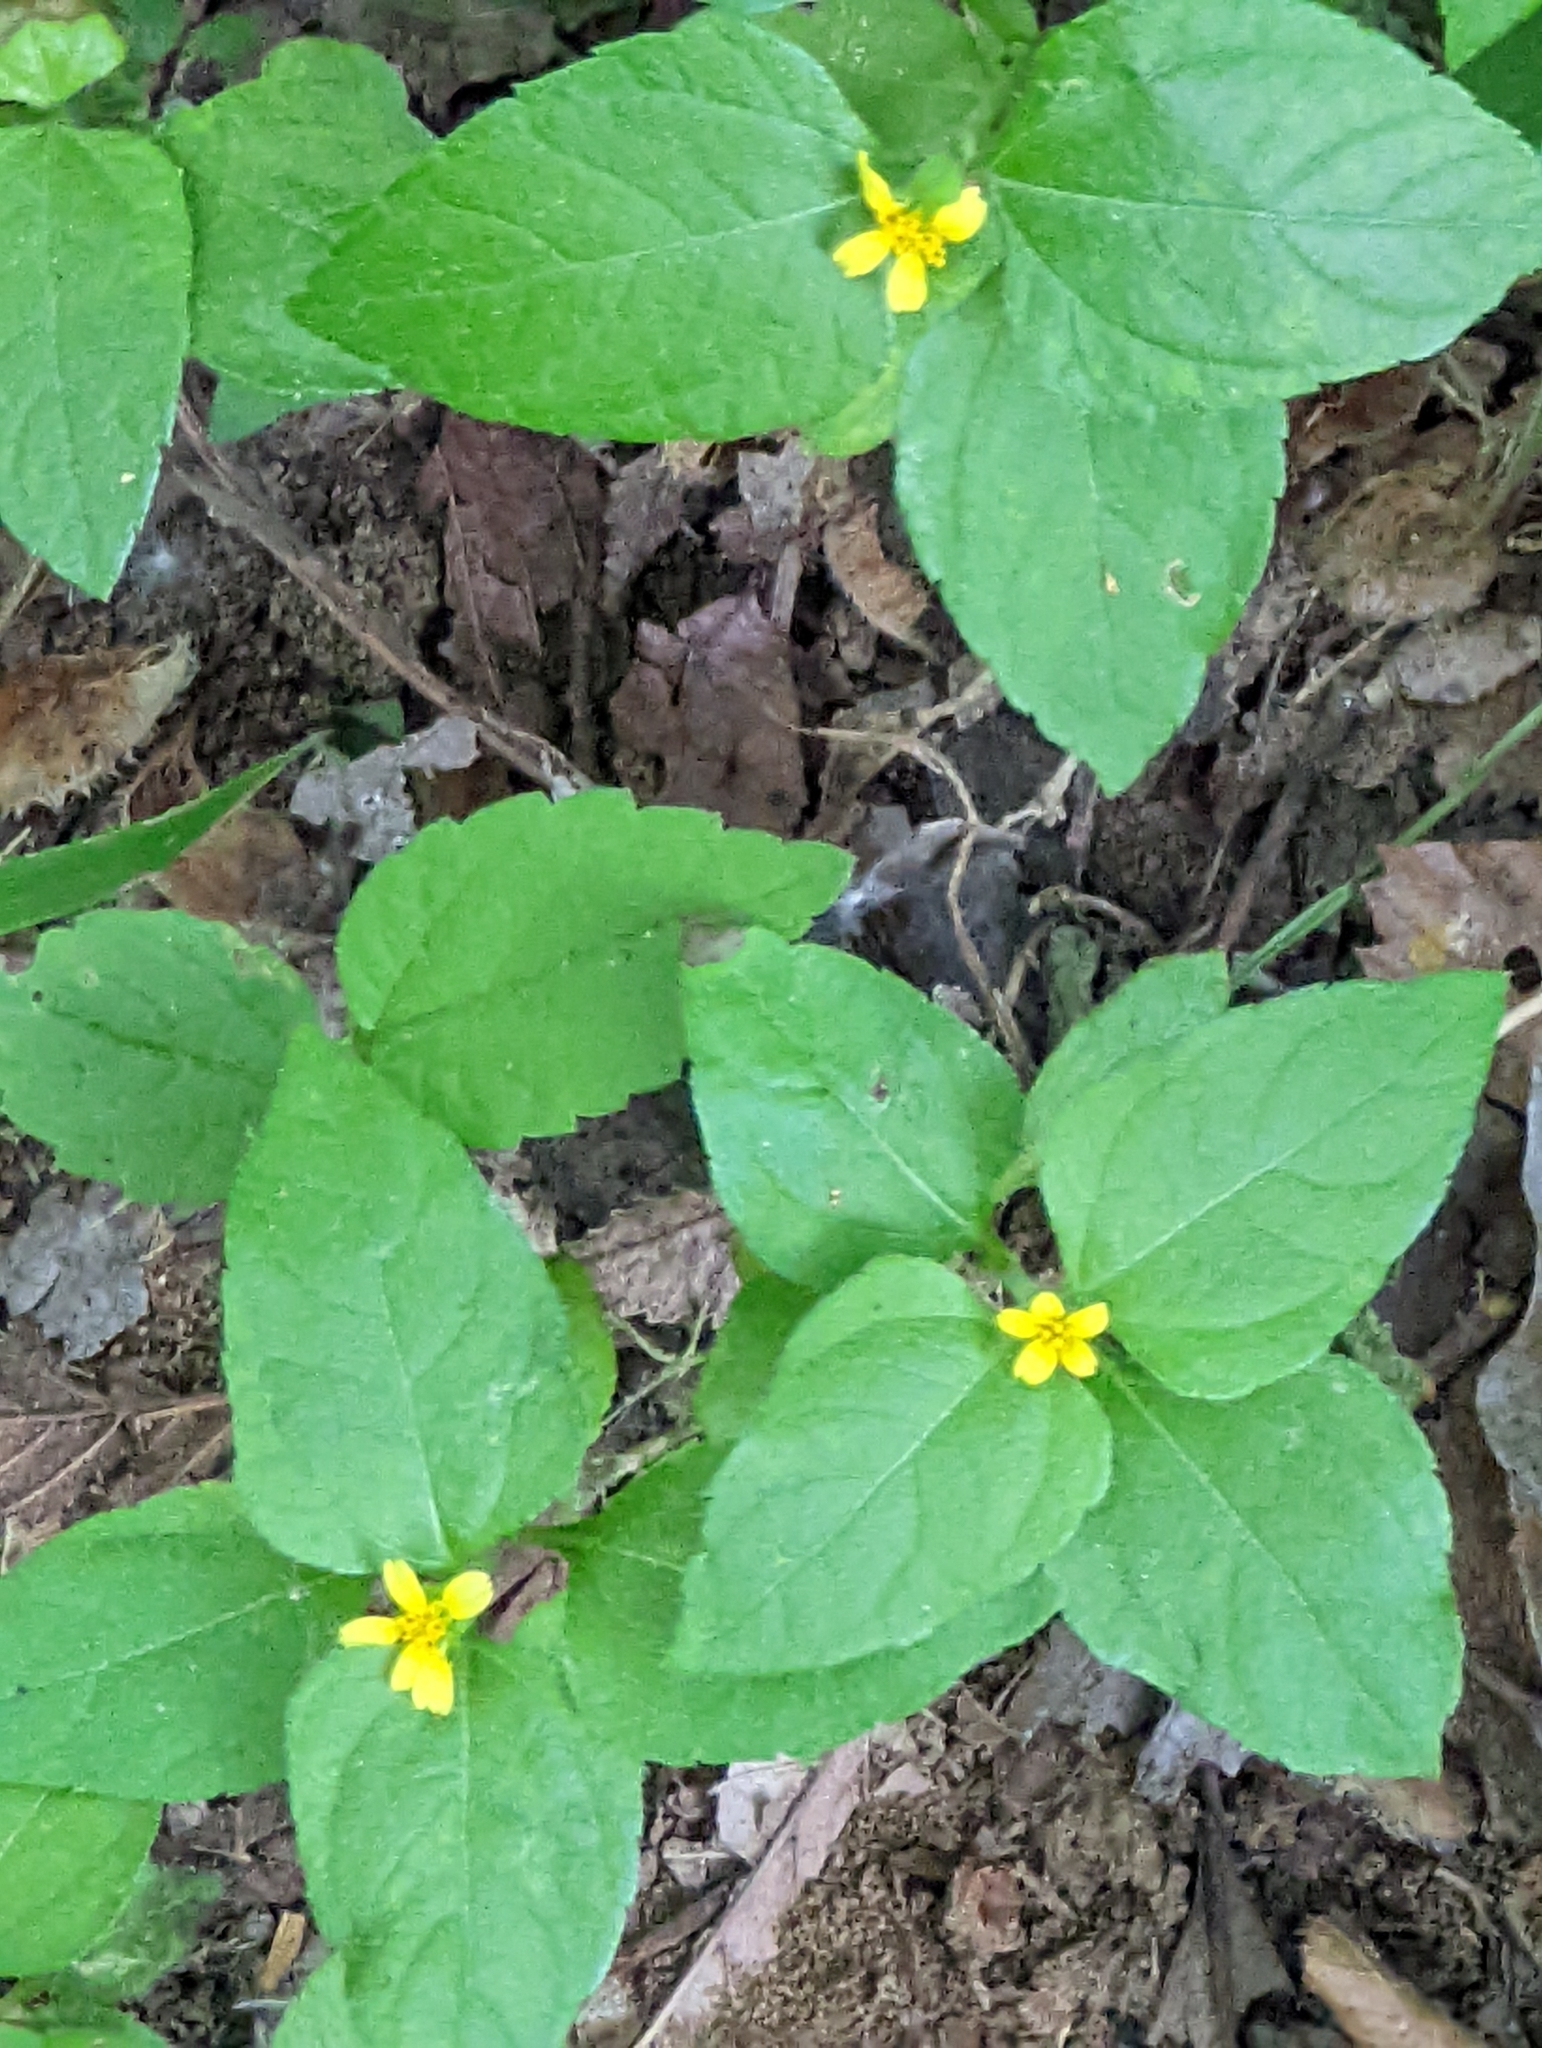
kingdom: Plantae
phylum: Tracheophyta
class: Magnoliopsida
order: Asterales
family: Asteraceae
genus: Calyptocarpus
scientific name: Calyptocarpus vialis
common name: Straggler daisy
